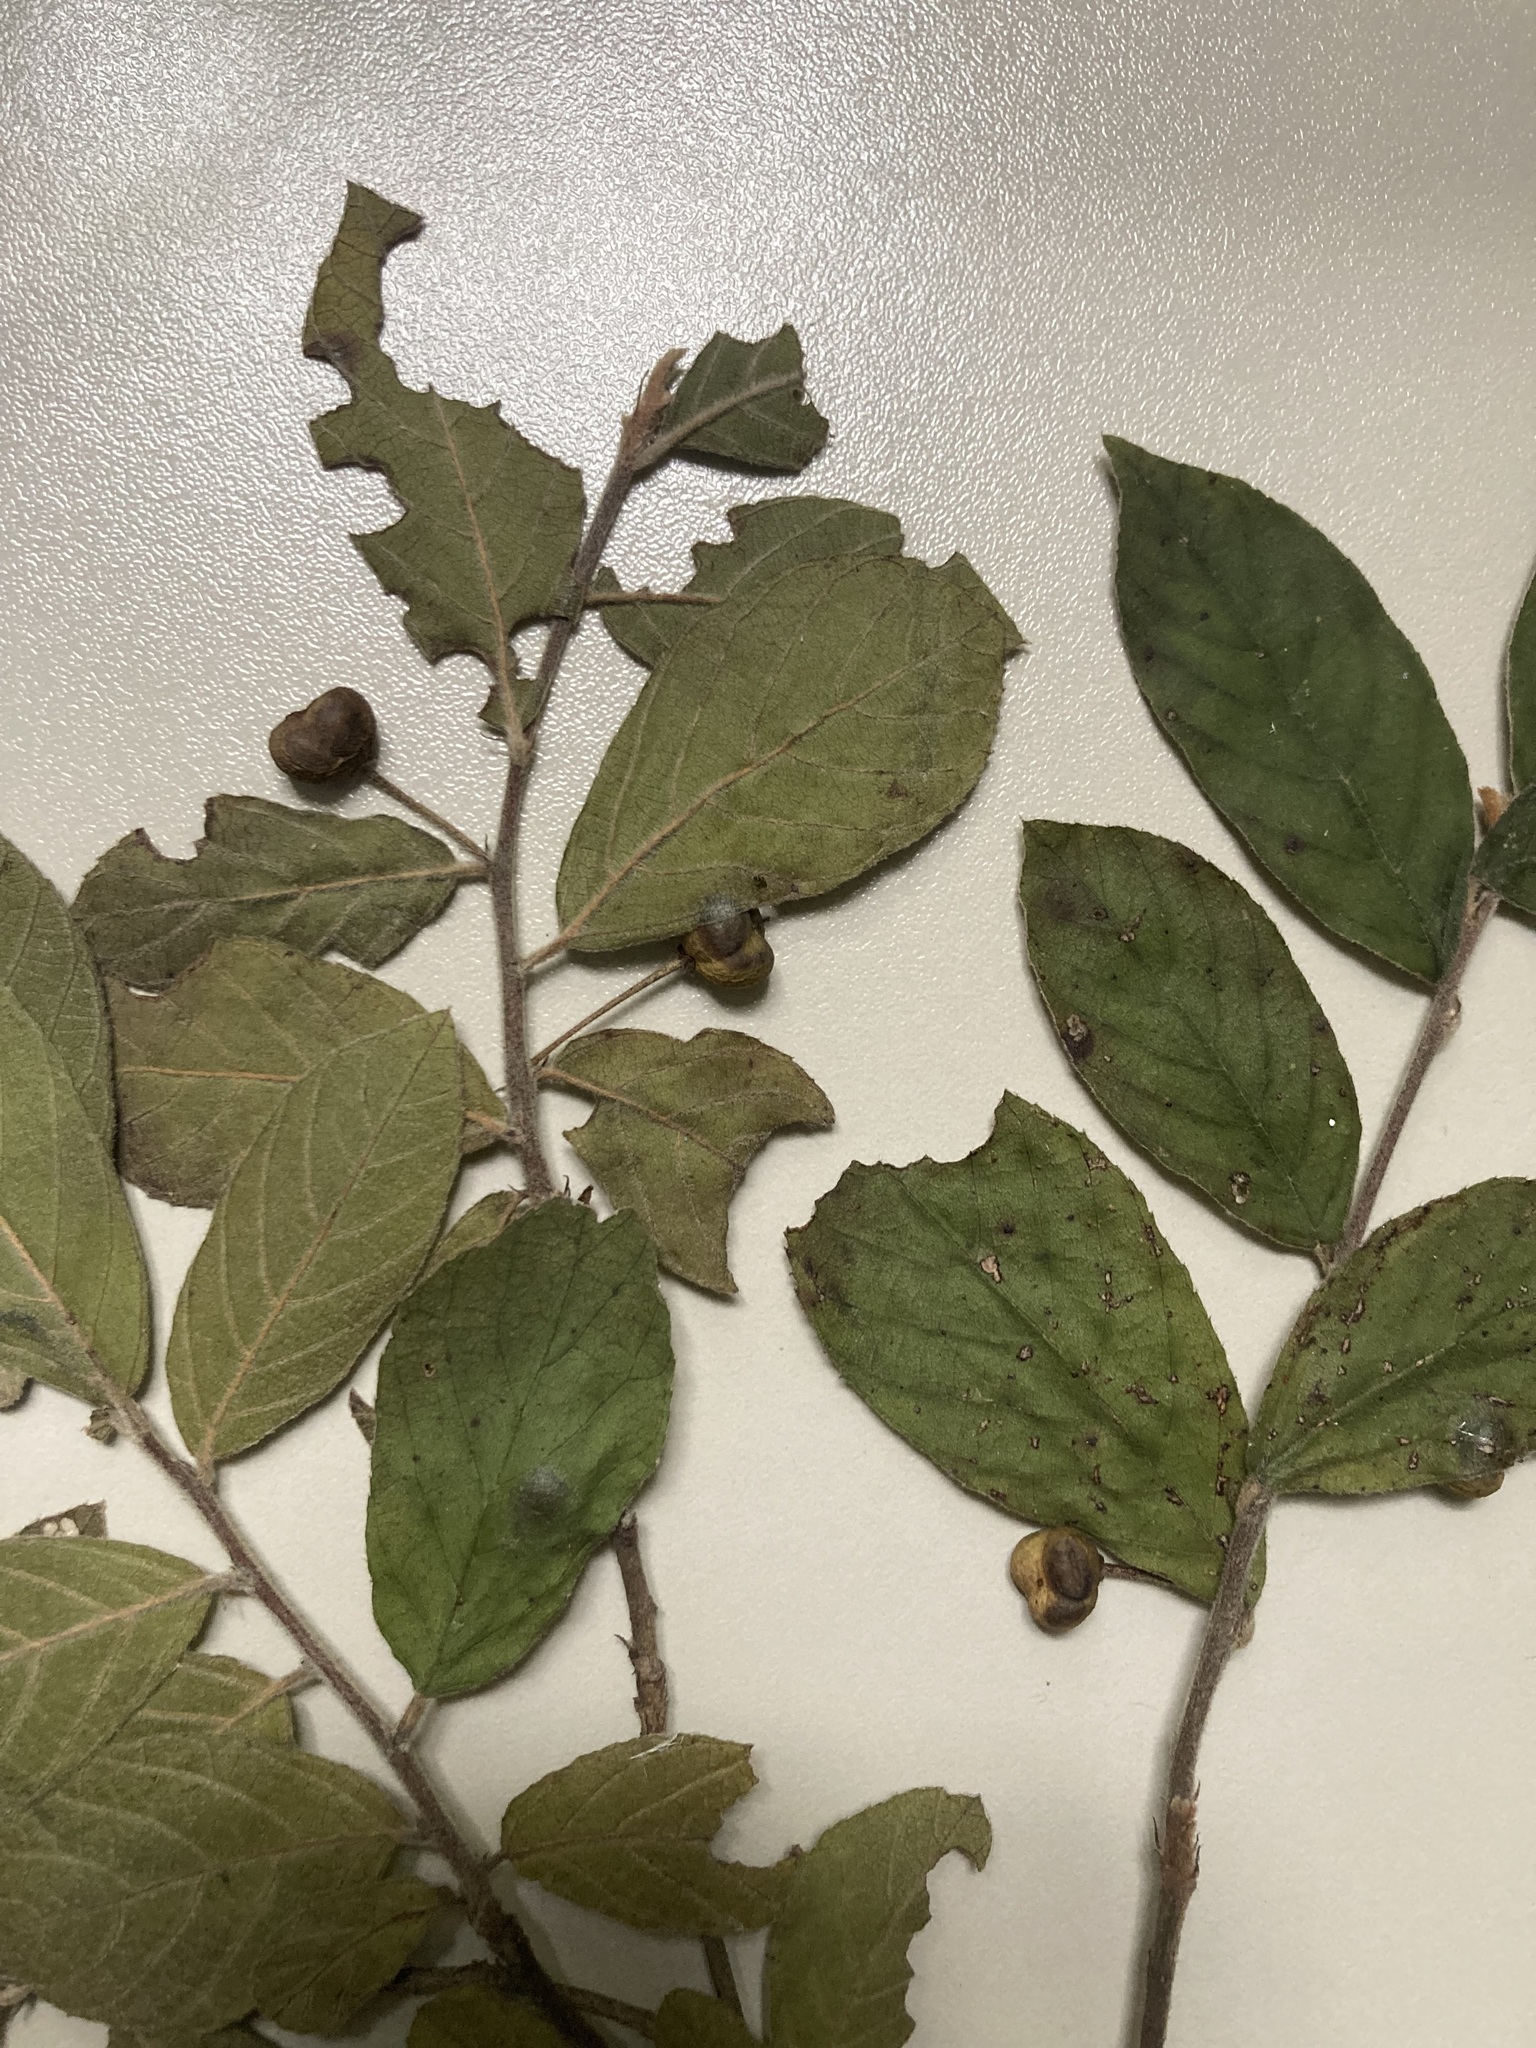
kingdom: Plantae
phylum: Tracheophyta
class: Magnoliopsida
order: Rosales
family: Rhamnaceae
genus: Frangula
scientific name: Frangula pringlei
